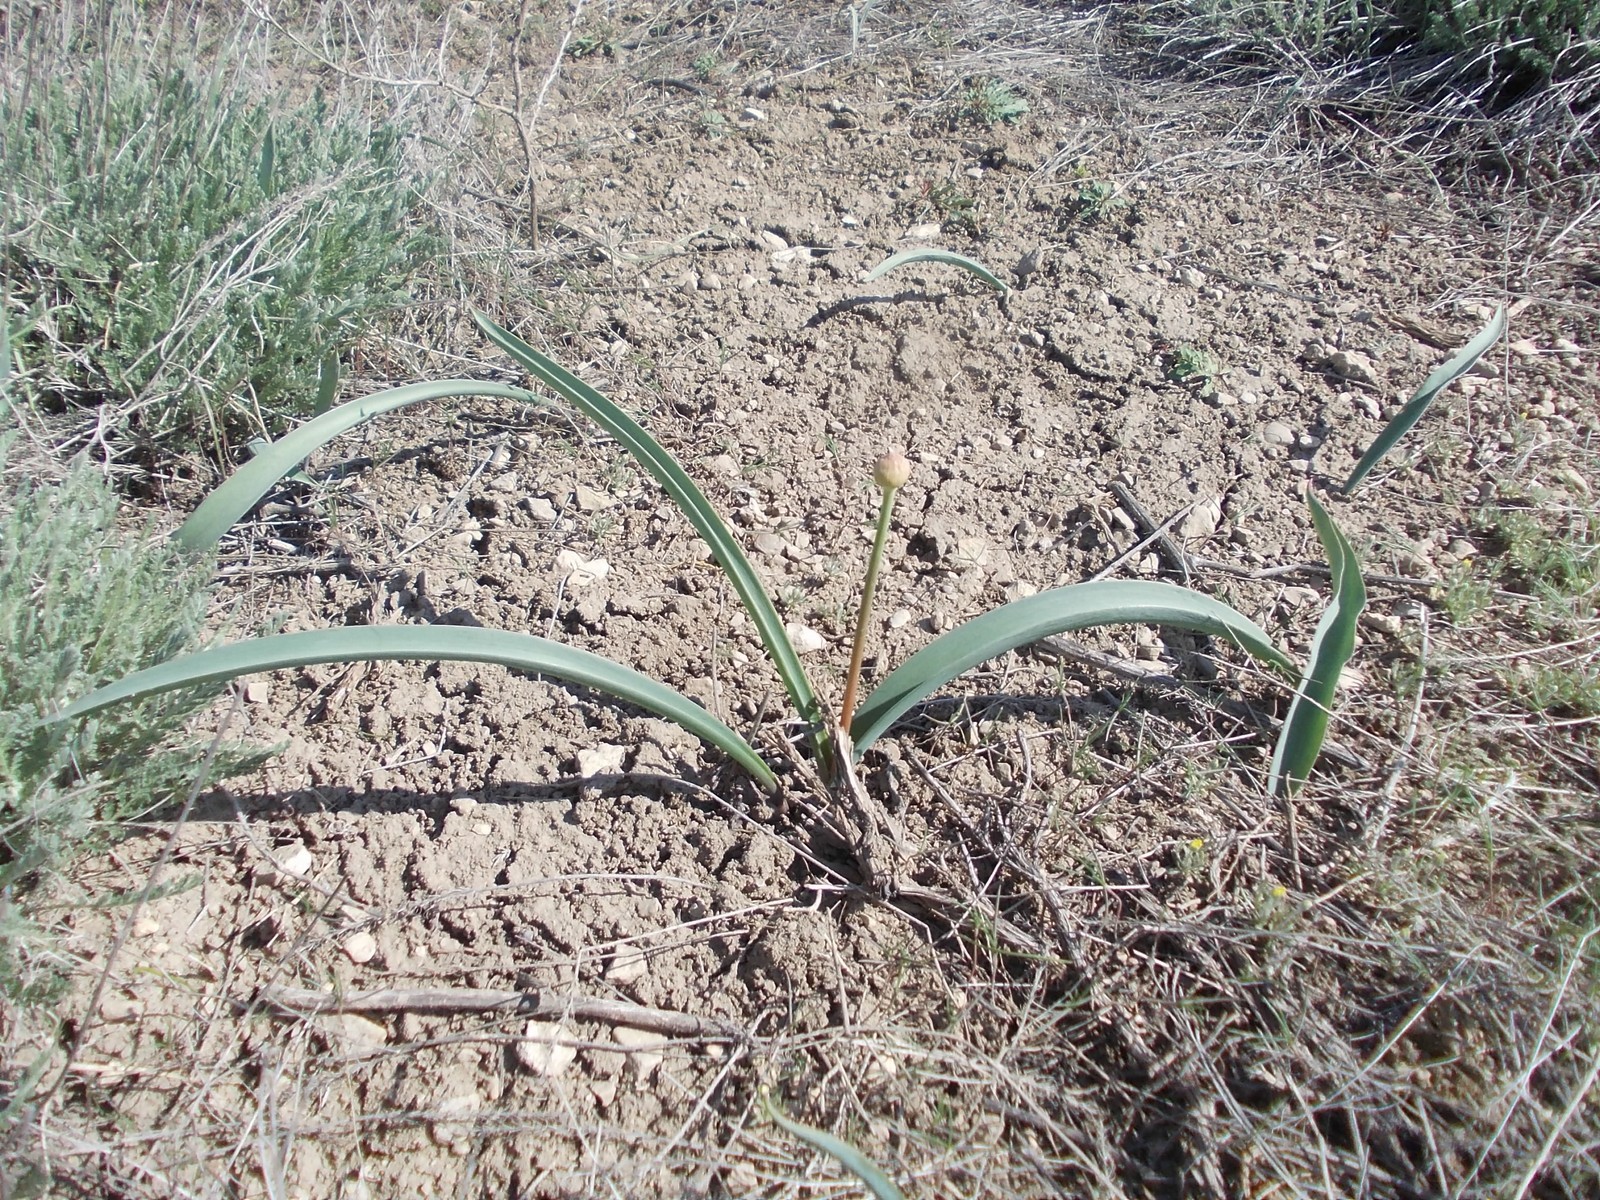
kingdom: Plantae
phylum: Tracheophyta
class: Liliopsida
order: Asparagales
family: Amaryllidaceae
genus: Allium
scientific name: Allium tulipifolium
